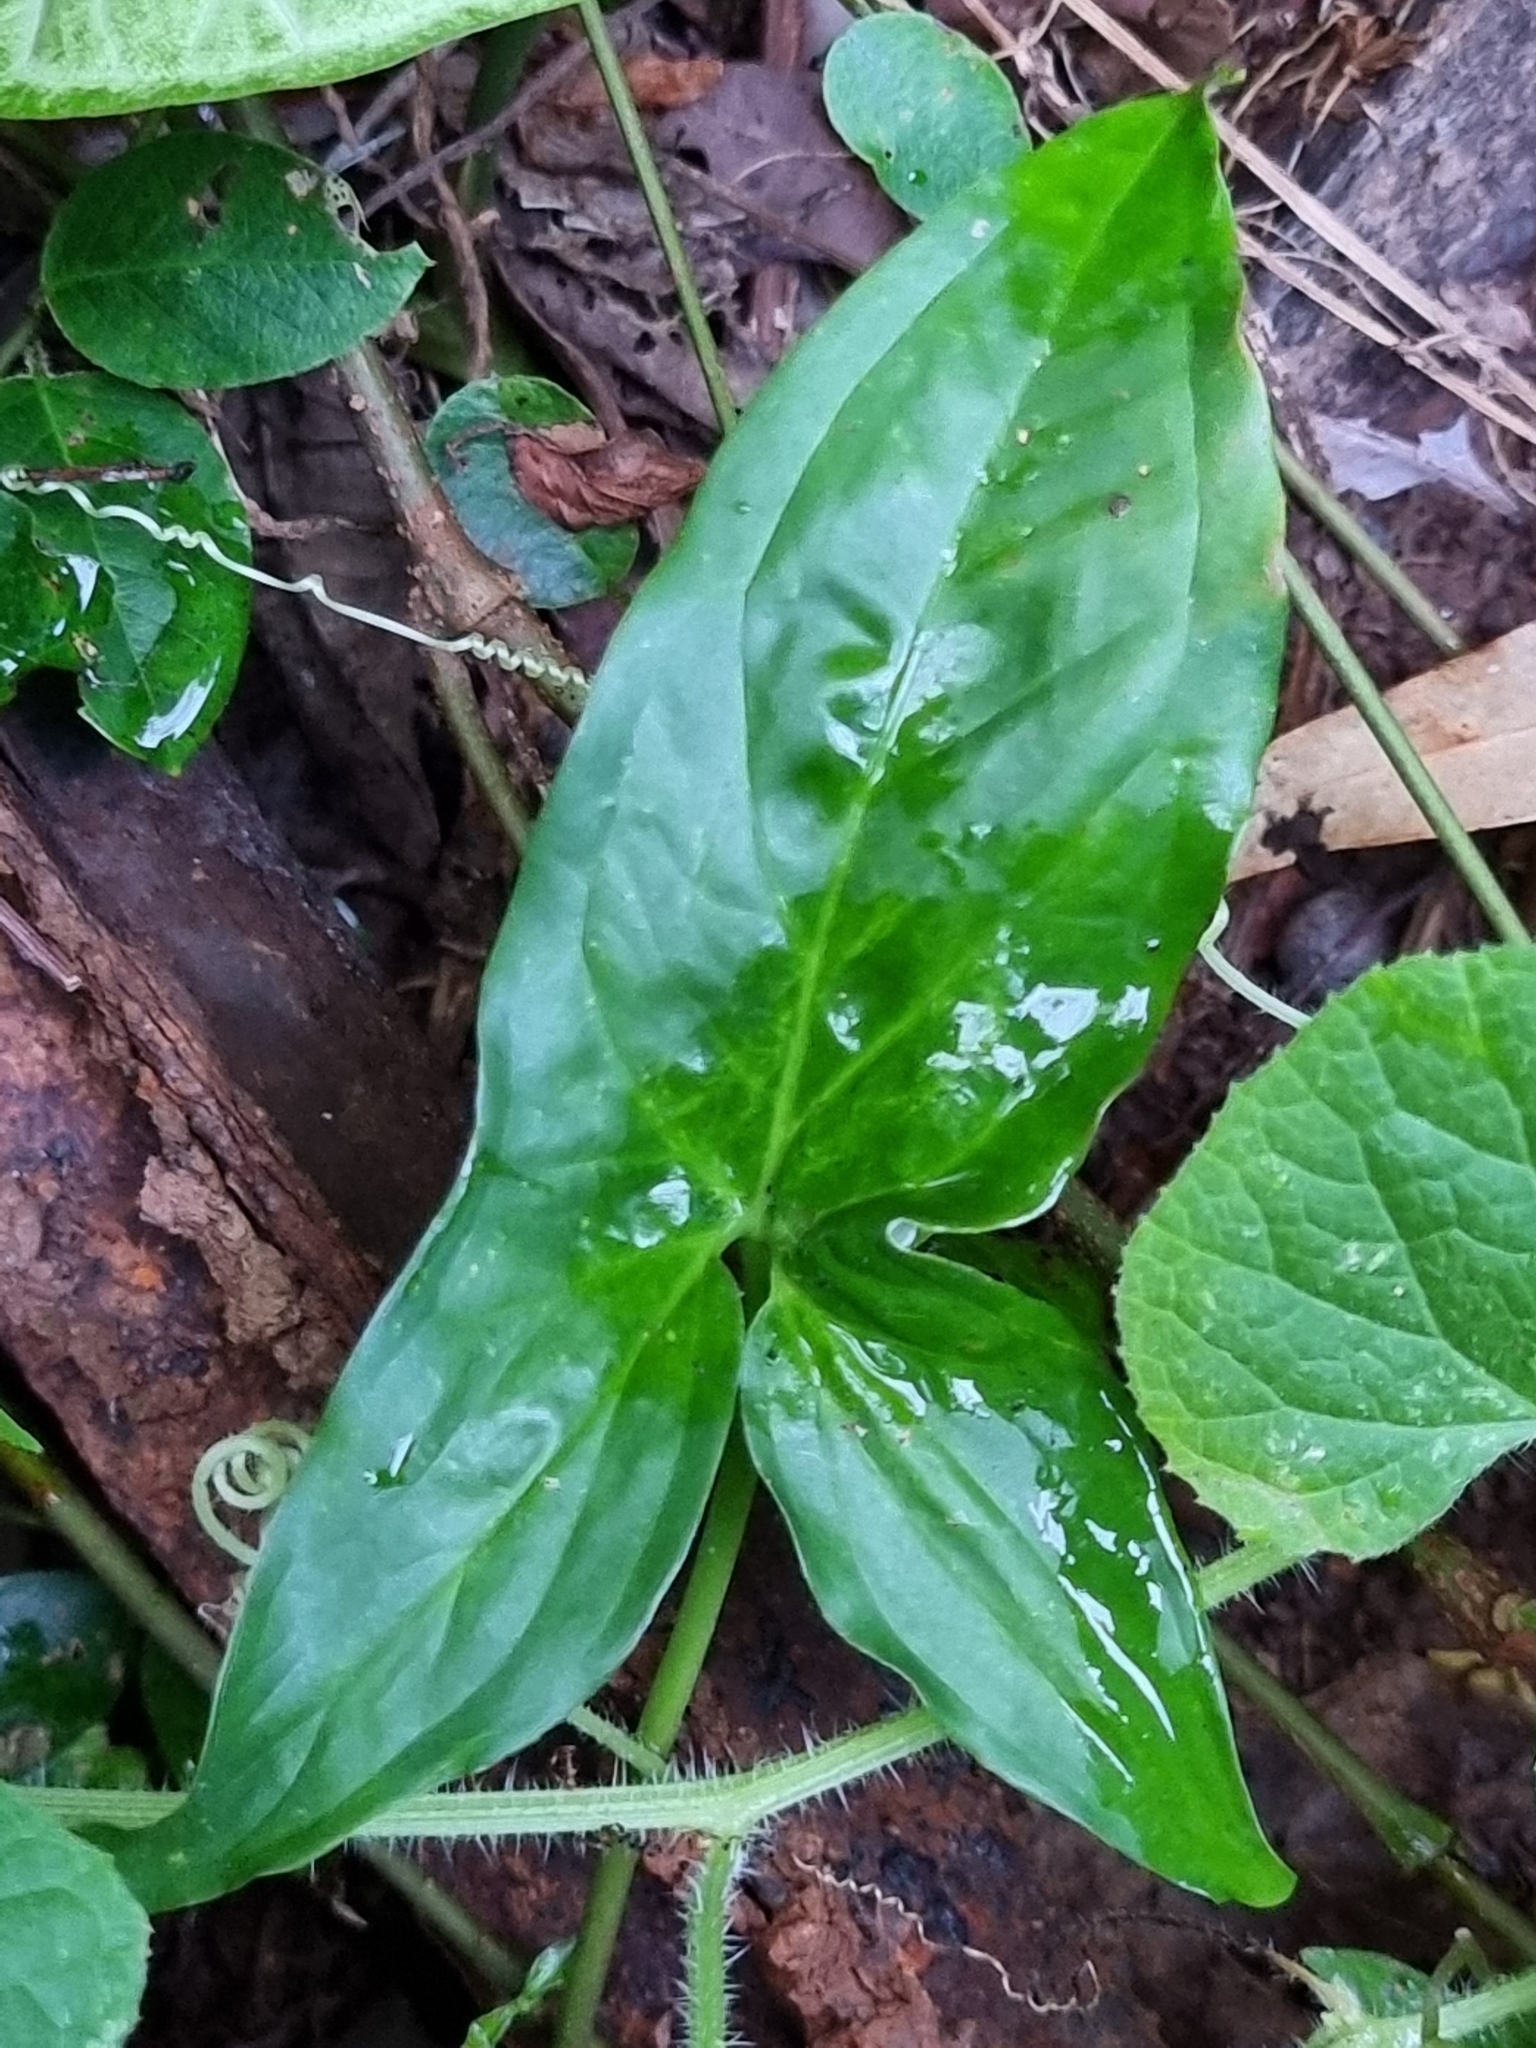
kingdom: Plantae
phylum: Tracheophyta
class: Liliopsida
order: Alismatales
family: Araceae
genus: Syngonium
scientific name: Syngonium podophyllum
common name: American evergreen
